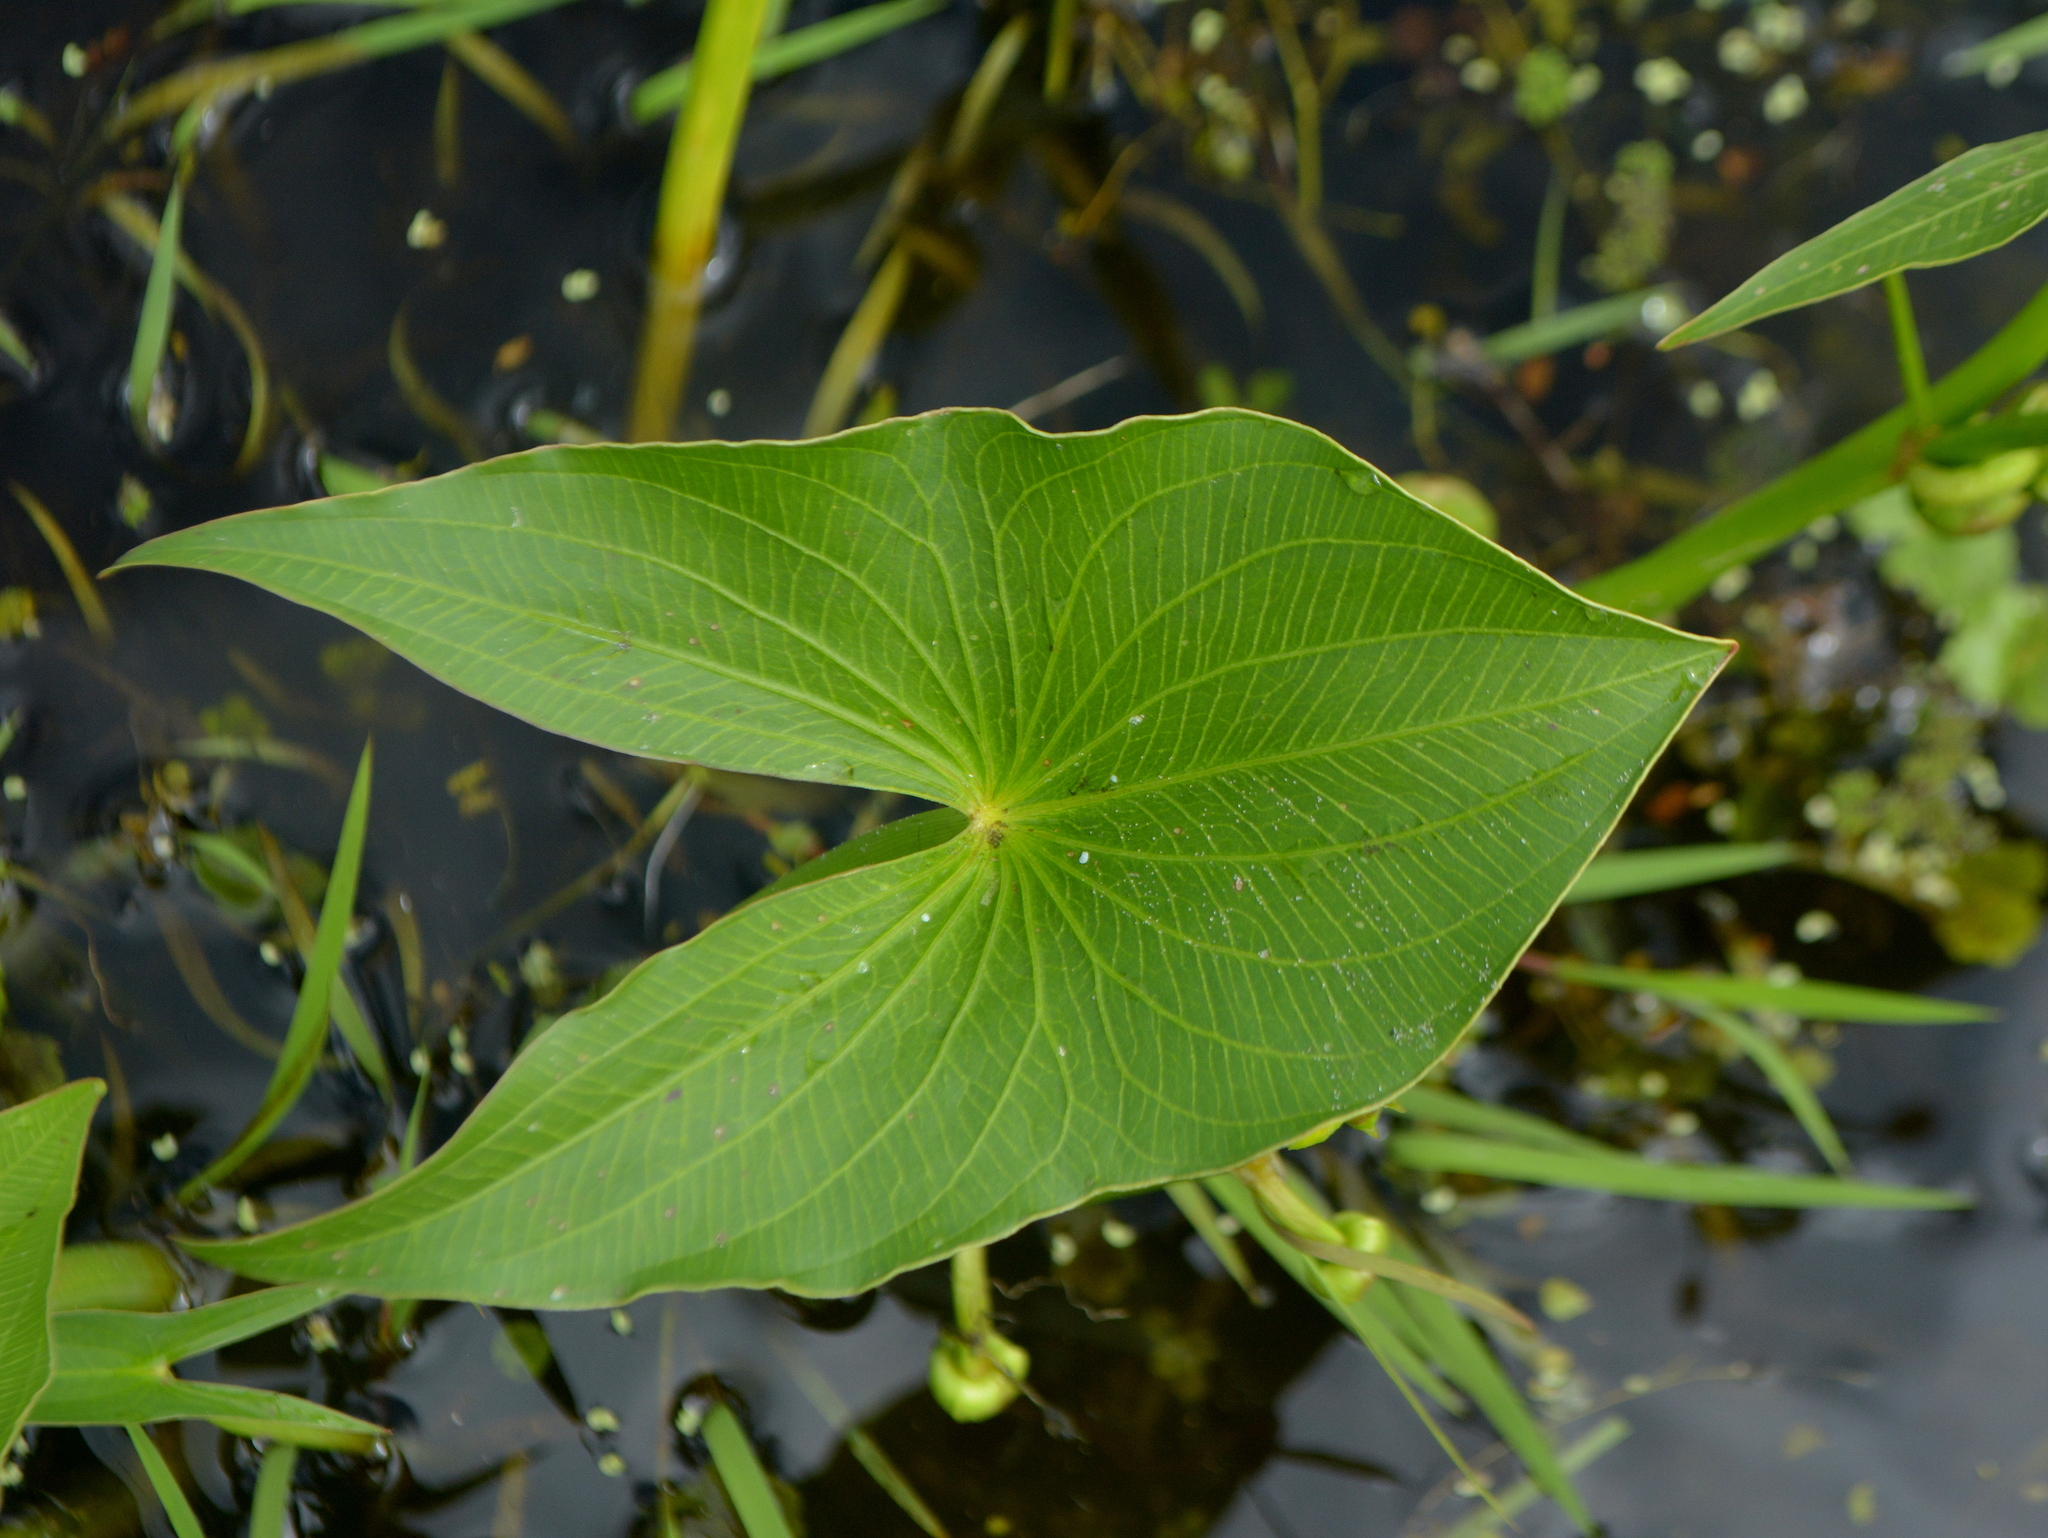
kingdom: Plantae
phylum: Tracheophyta
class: Liliopsida
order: Alismatales
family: Alismataceae
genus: Sagittaria
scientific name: Sagittaria montevidensis
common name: Giant arrowhead
